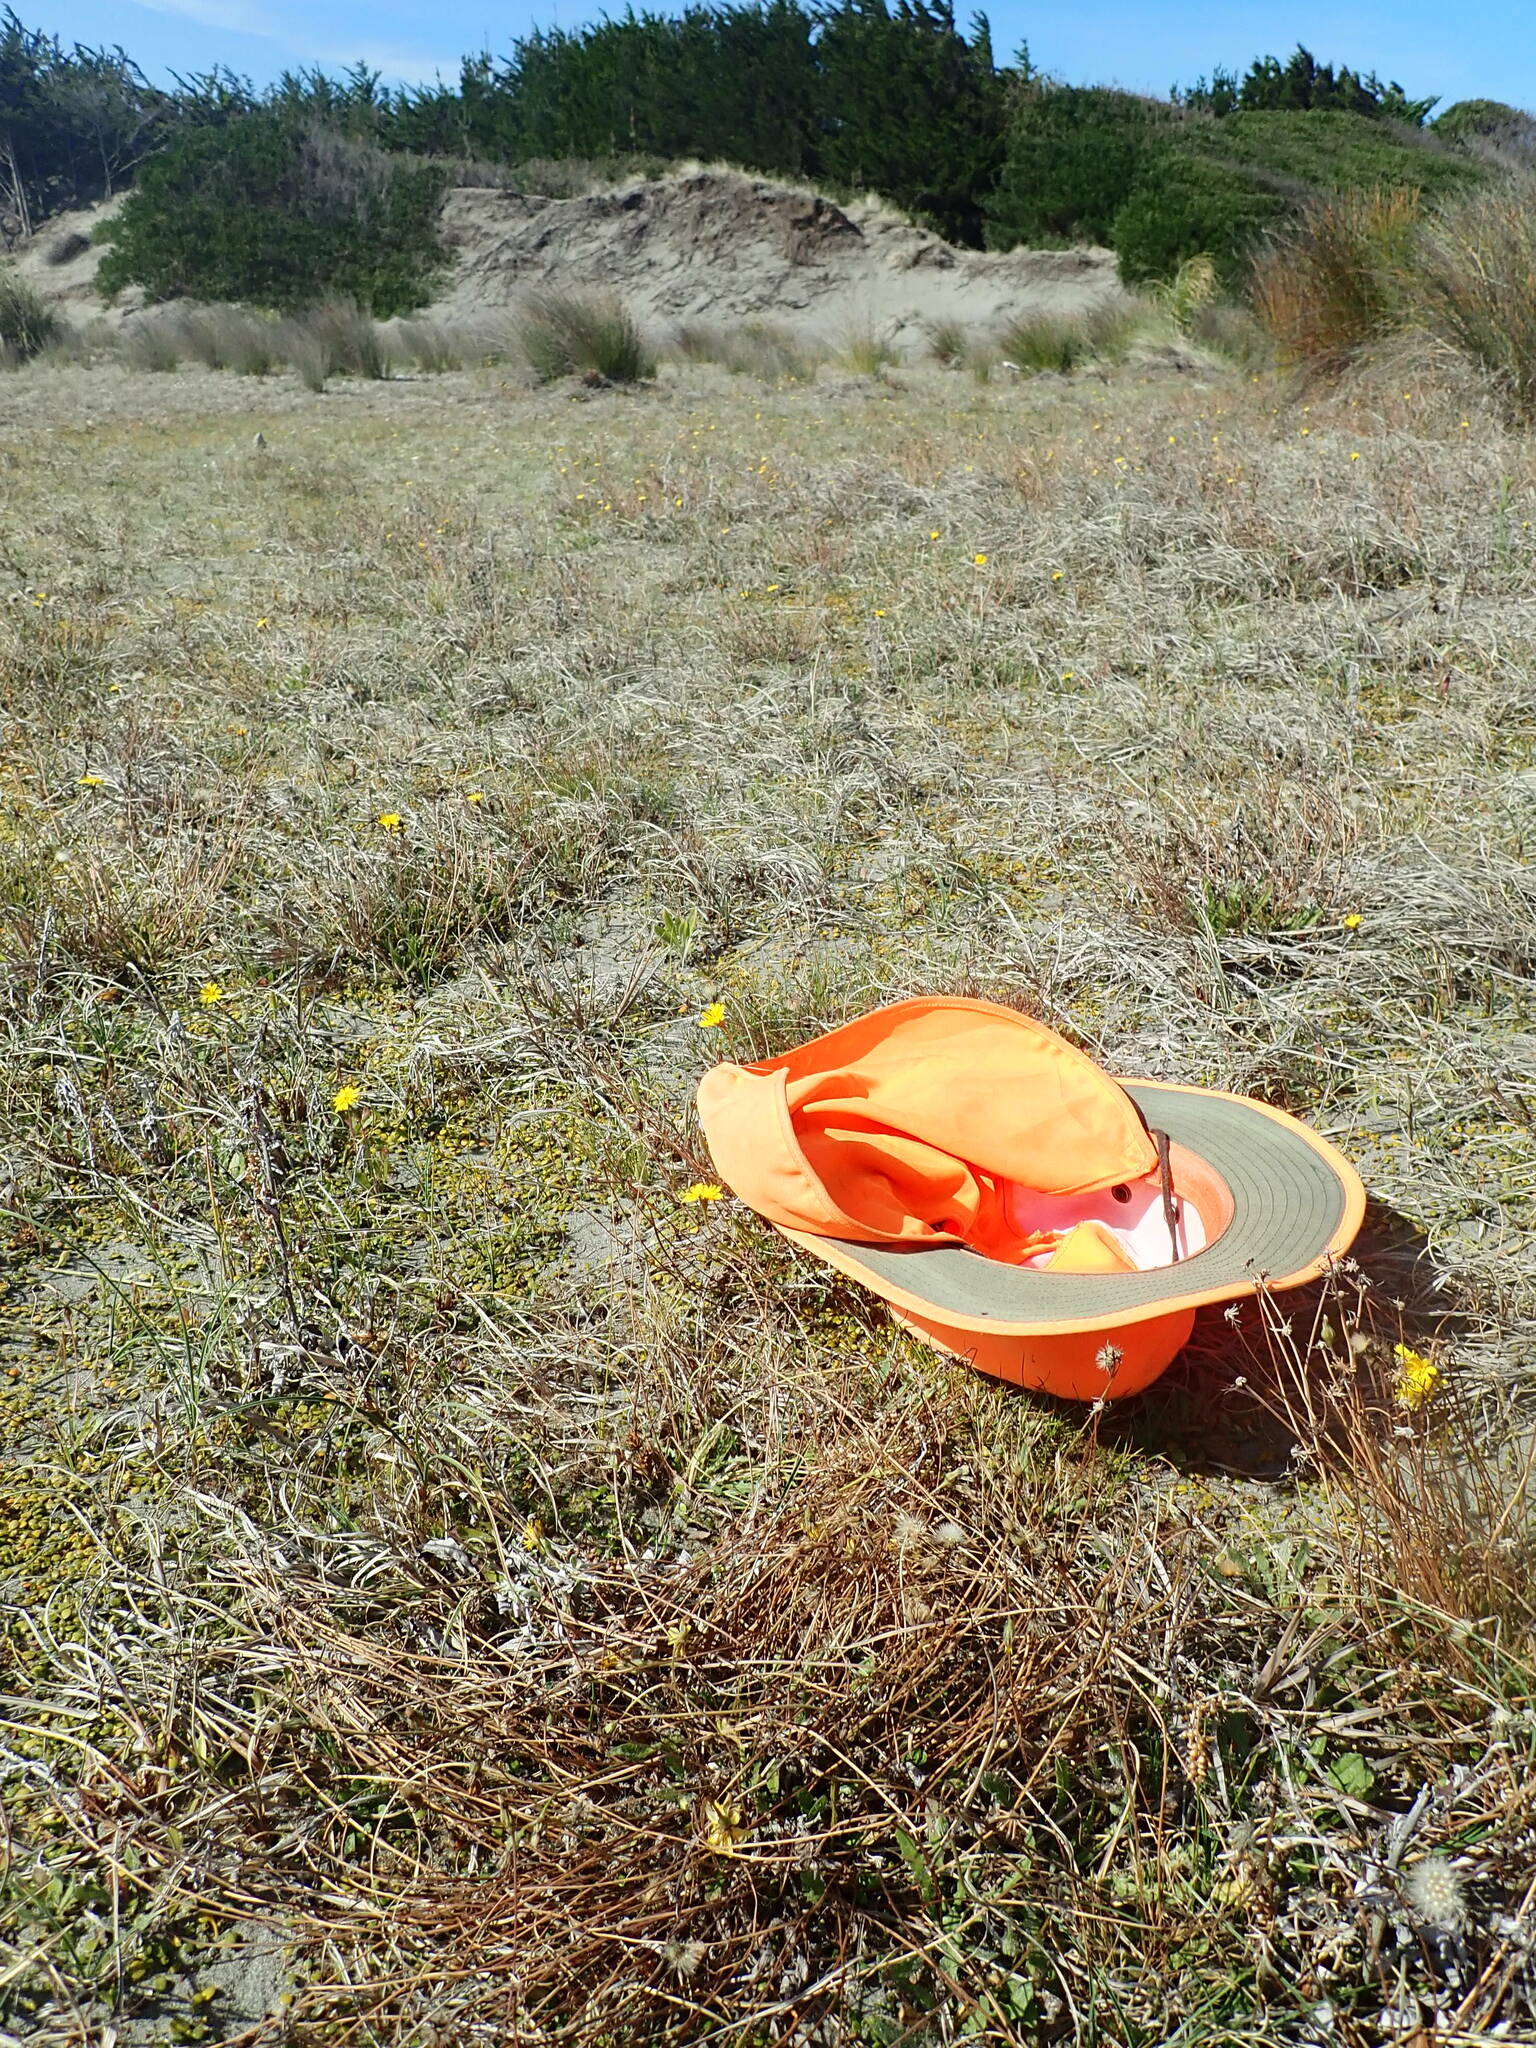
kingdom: Plantae
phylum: Tracheophyta
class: Magnoliopsida
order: Apiales
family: Apiaceae
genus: Lilaeopsis
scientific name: Lilaeopsis novae-zelandiae
